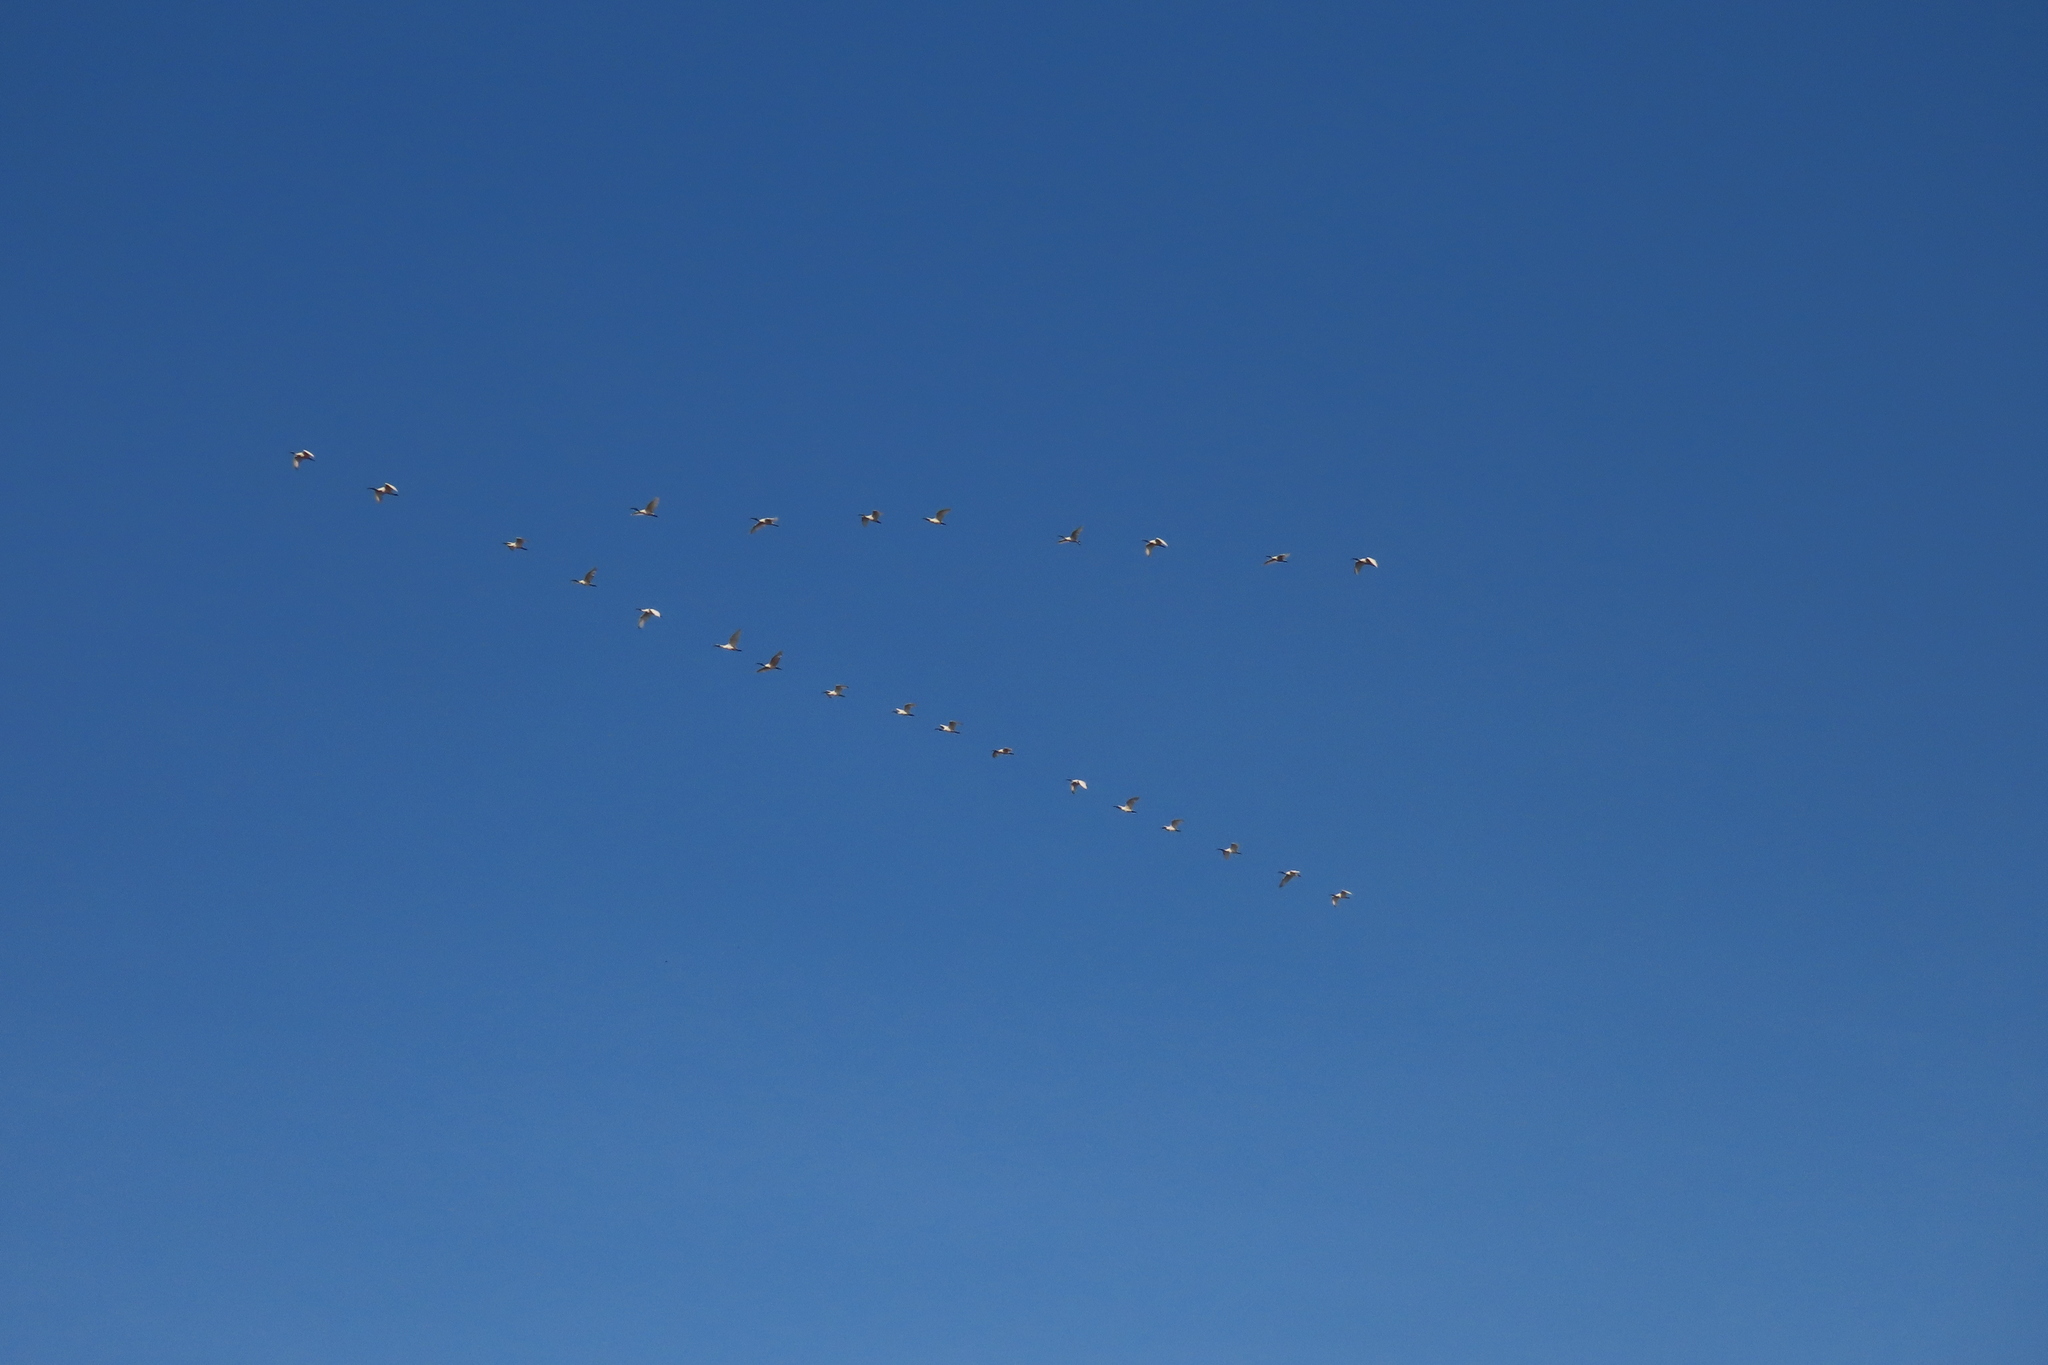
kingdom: Animalia
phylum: Chordata
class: Aves
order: Pelecaniformes
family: Threskiornithidae
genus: Threskiornis
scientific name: Threskiornis melanocephalus
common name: Black-headed ibis
